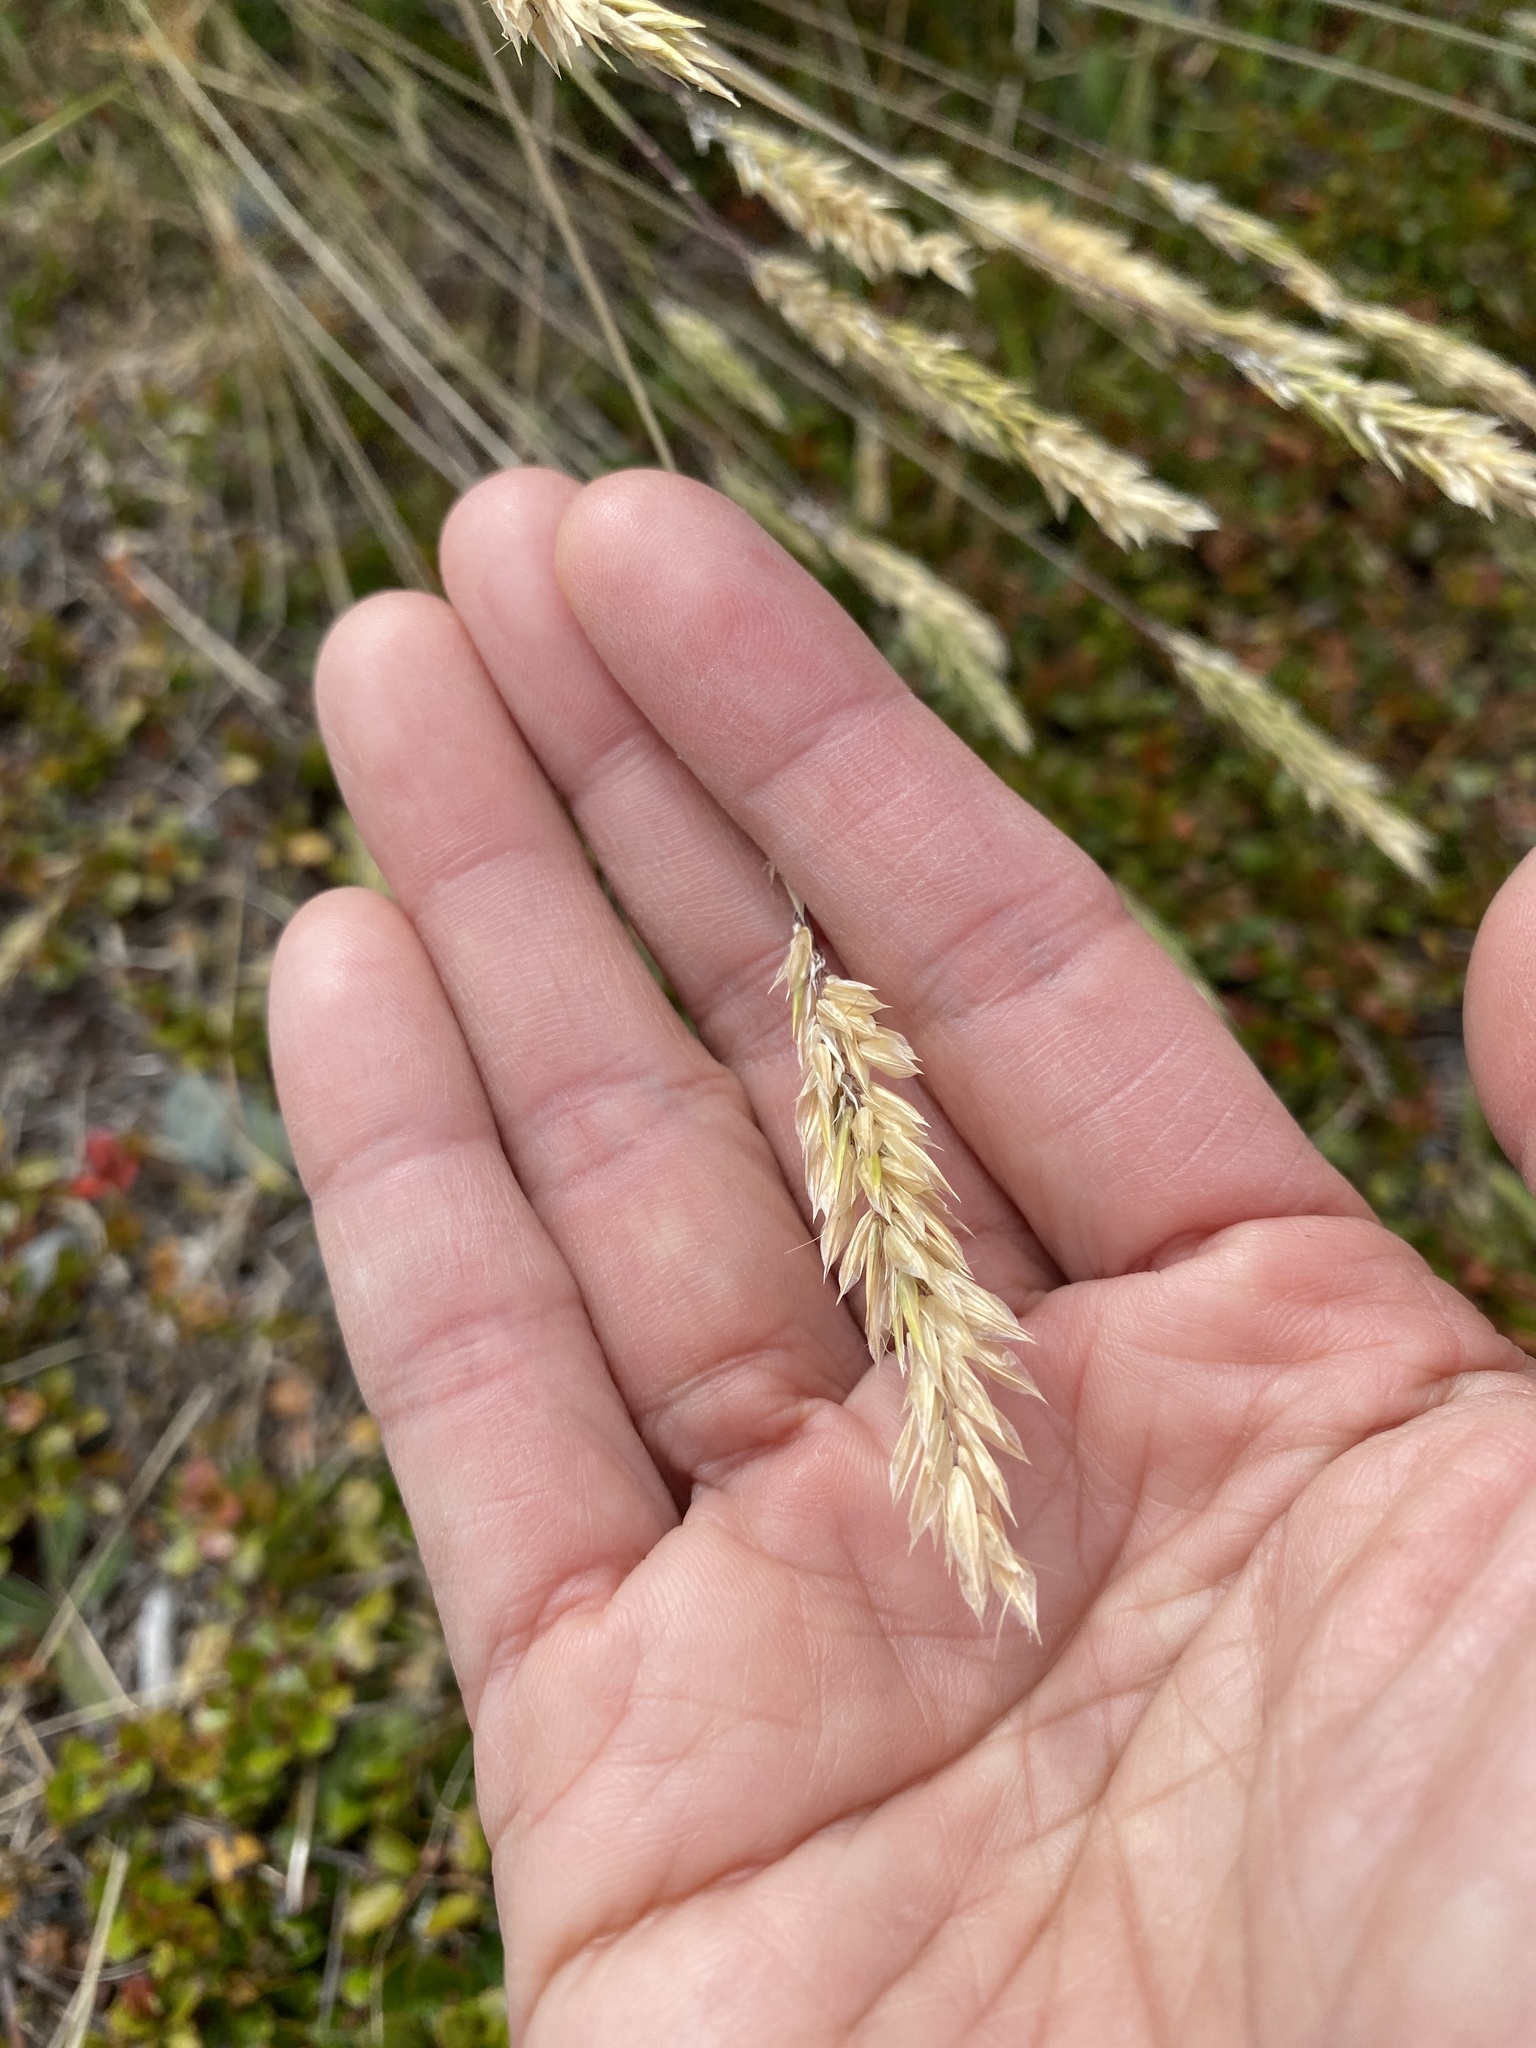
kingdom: Plantae
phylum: Tracheophyta
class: Liliopsida
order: Poales
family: Poaceae
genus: Anthoxanthum
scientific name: Anthoxanthum odoratum
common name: Sweet vernalgrass
